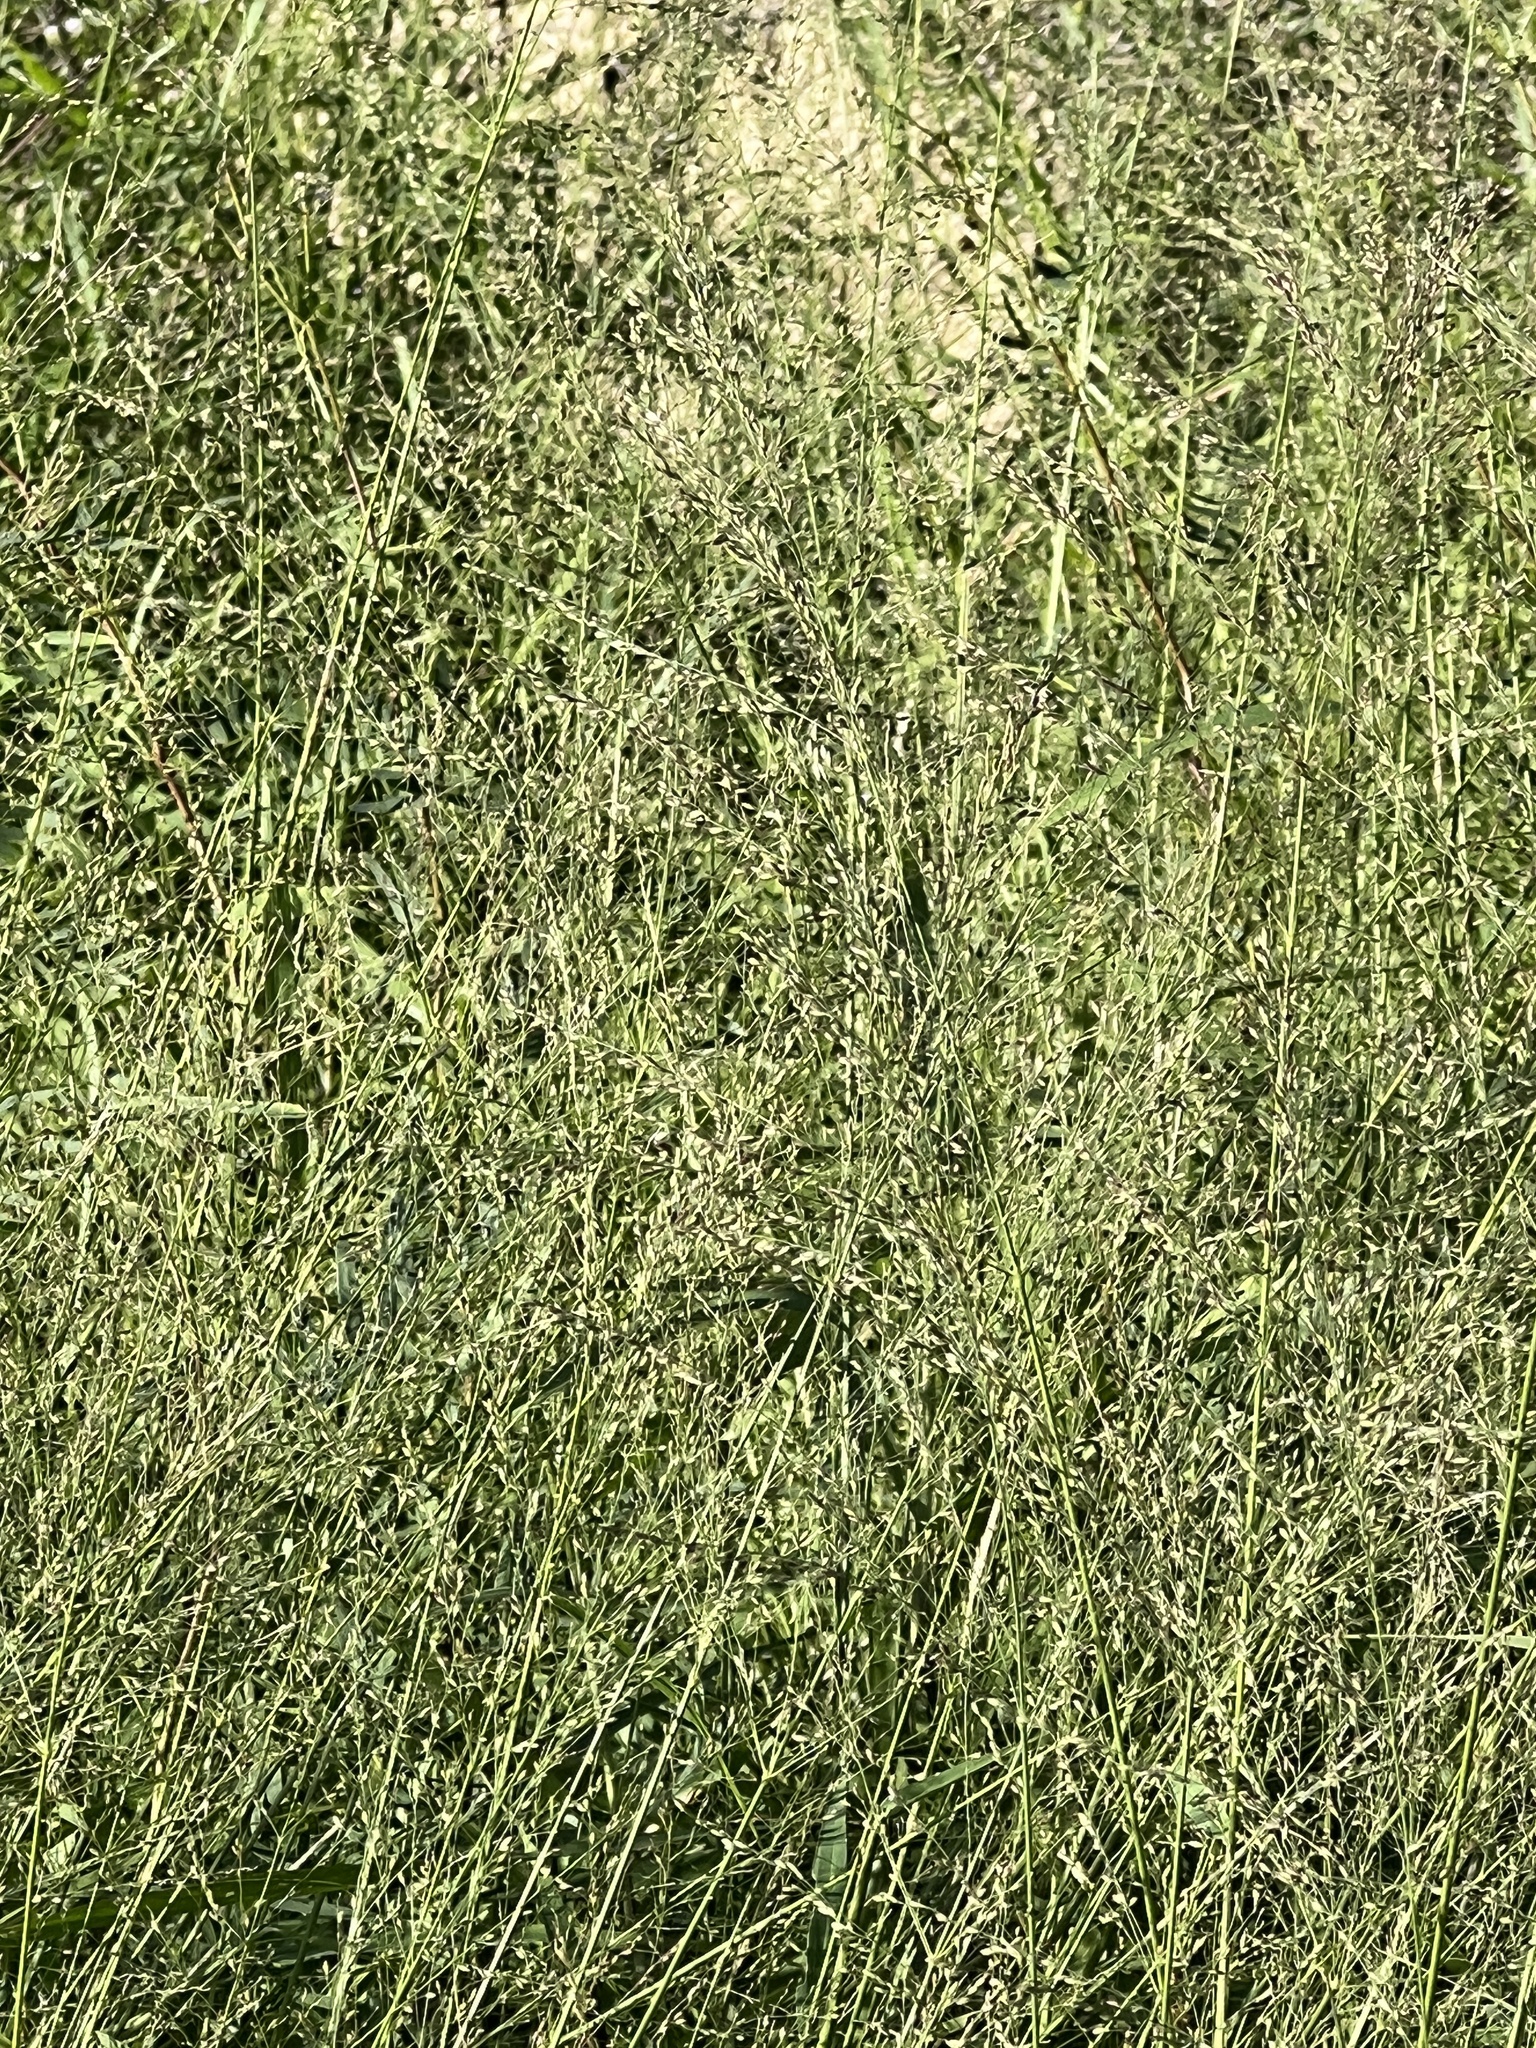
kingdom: Plantae
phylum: Tracheophyta
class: Liliopsida
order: Poales
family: Poaceae
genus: Megathyrsus
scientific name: Megathyrsus maximus
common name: Guineagrass
